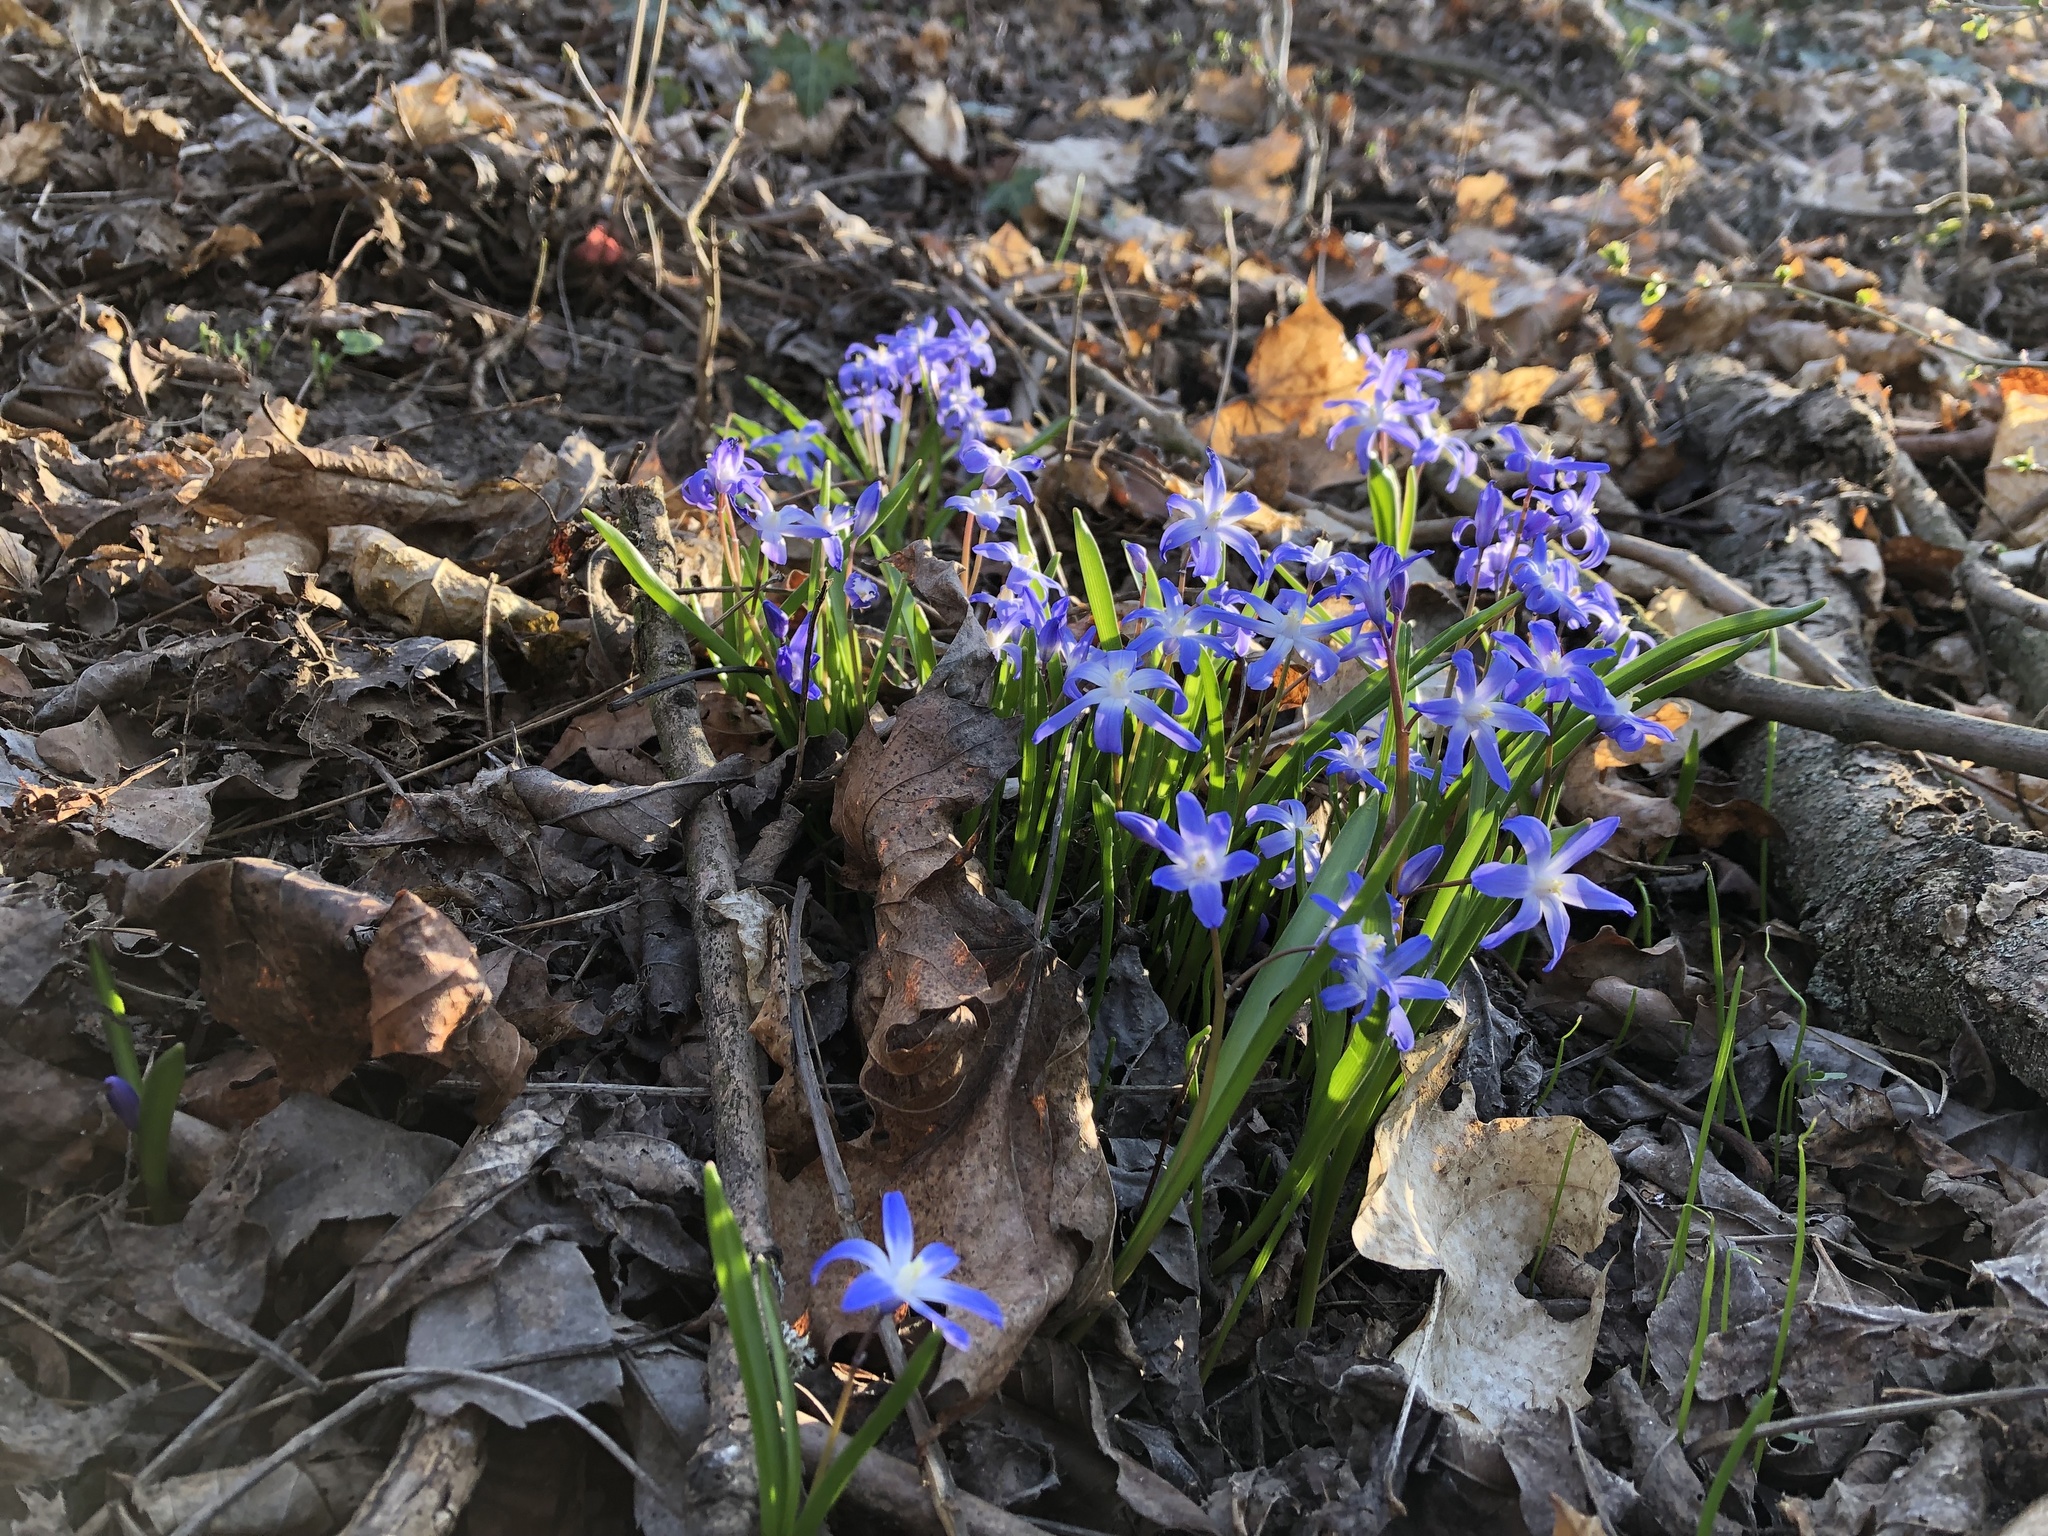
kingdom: Plantae
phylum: Tracheophyta
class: Liliopsida
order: Asparagales
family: Asparagaceae
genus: Scilla
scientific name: Scilla luciliae
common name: Boissier's glory-of-the-snow
